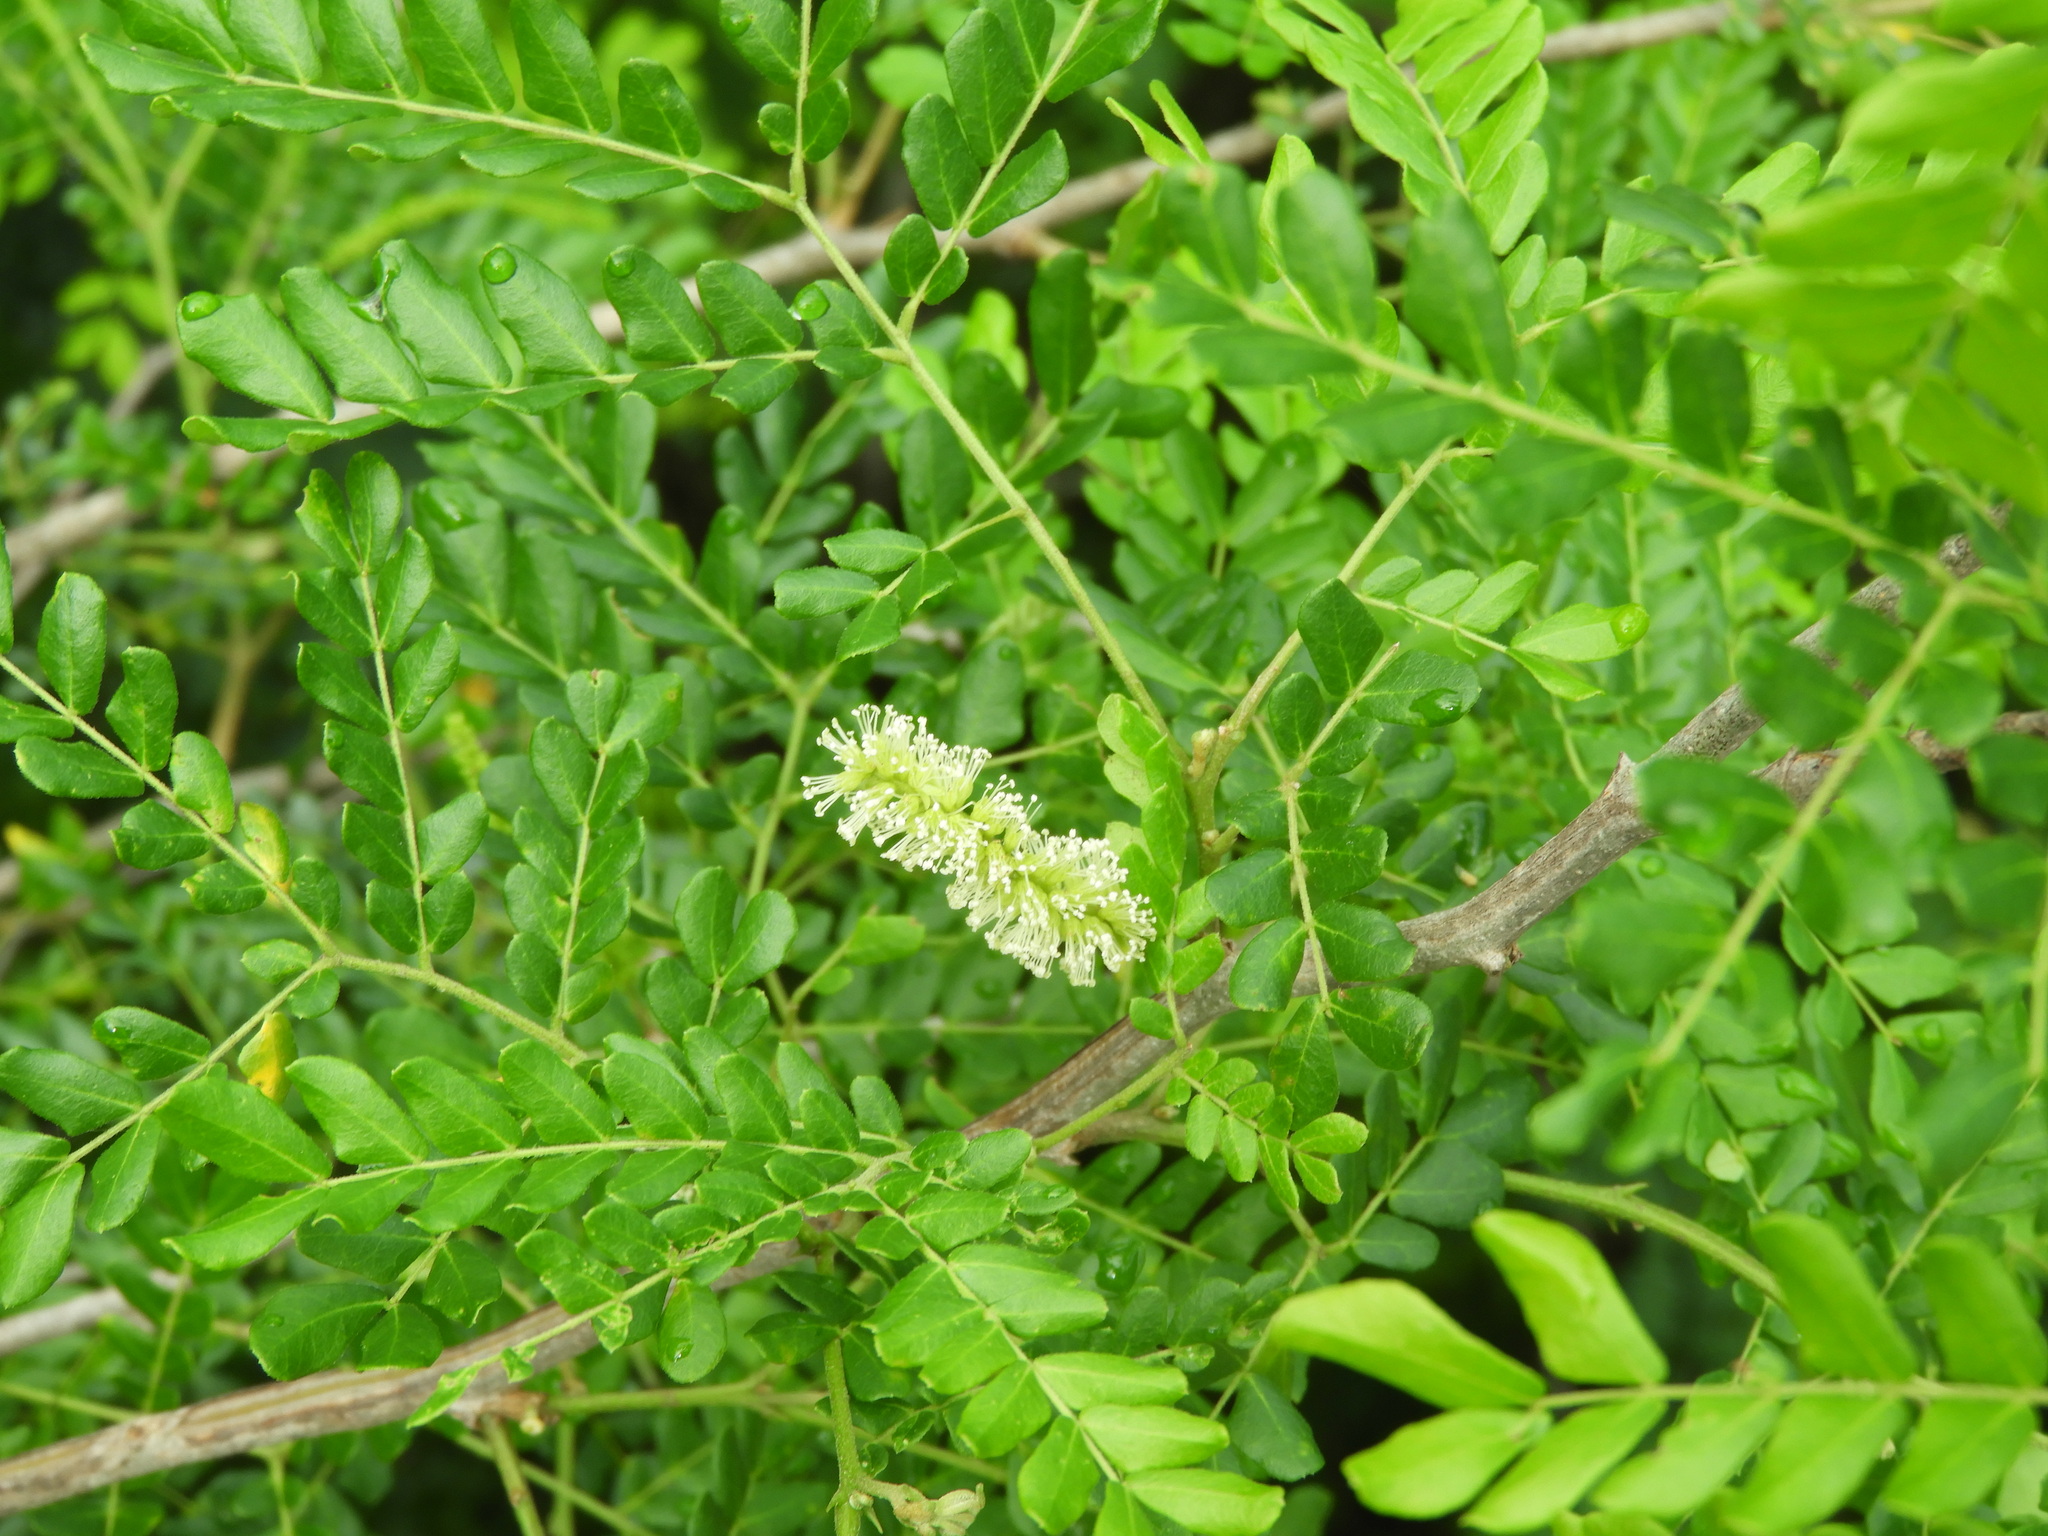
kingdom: Plantae
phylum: Tracheophyta
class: Magnoliopsida
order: Fabales
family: Fabaceae
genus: Cenostigma
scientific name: Cenostigma eriostachys
